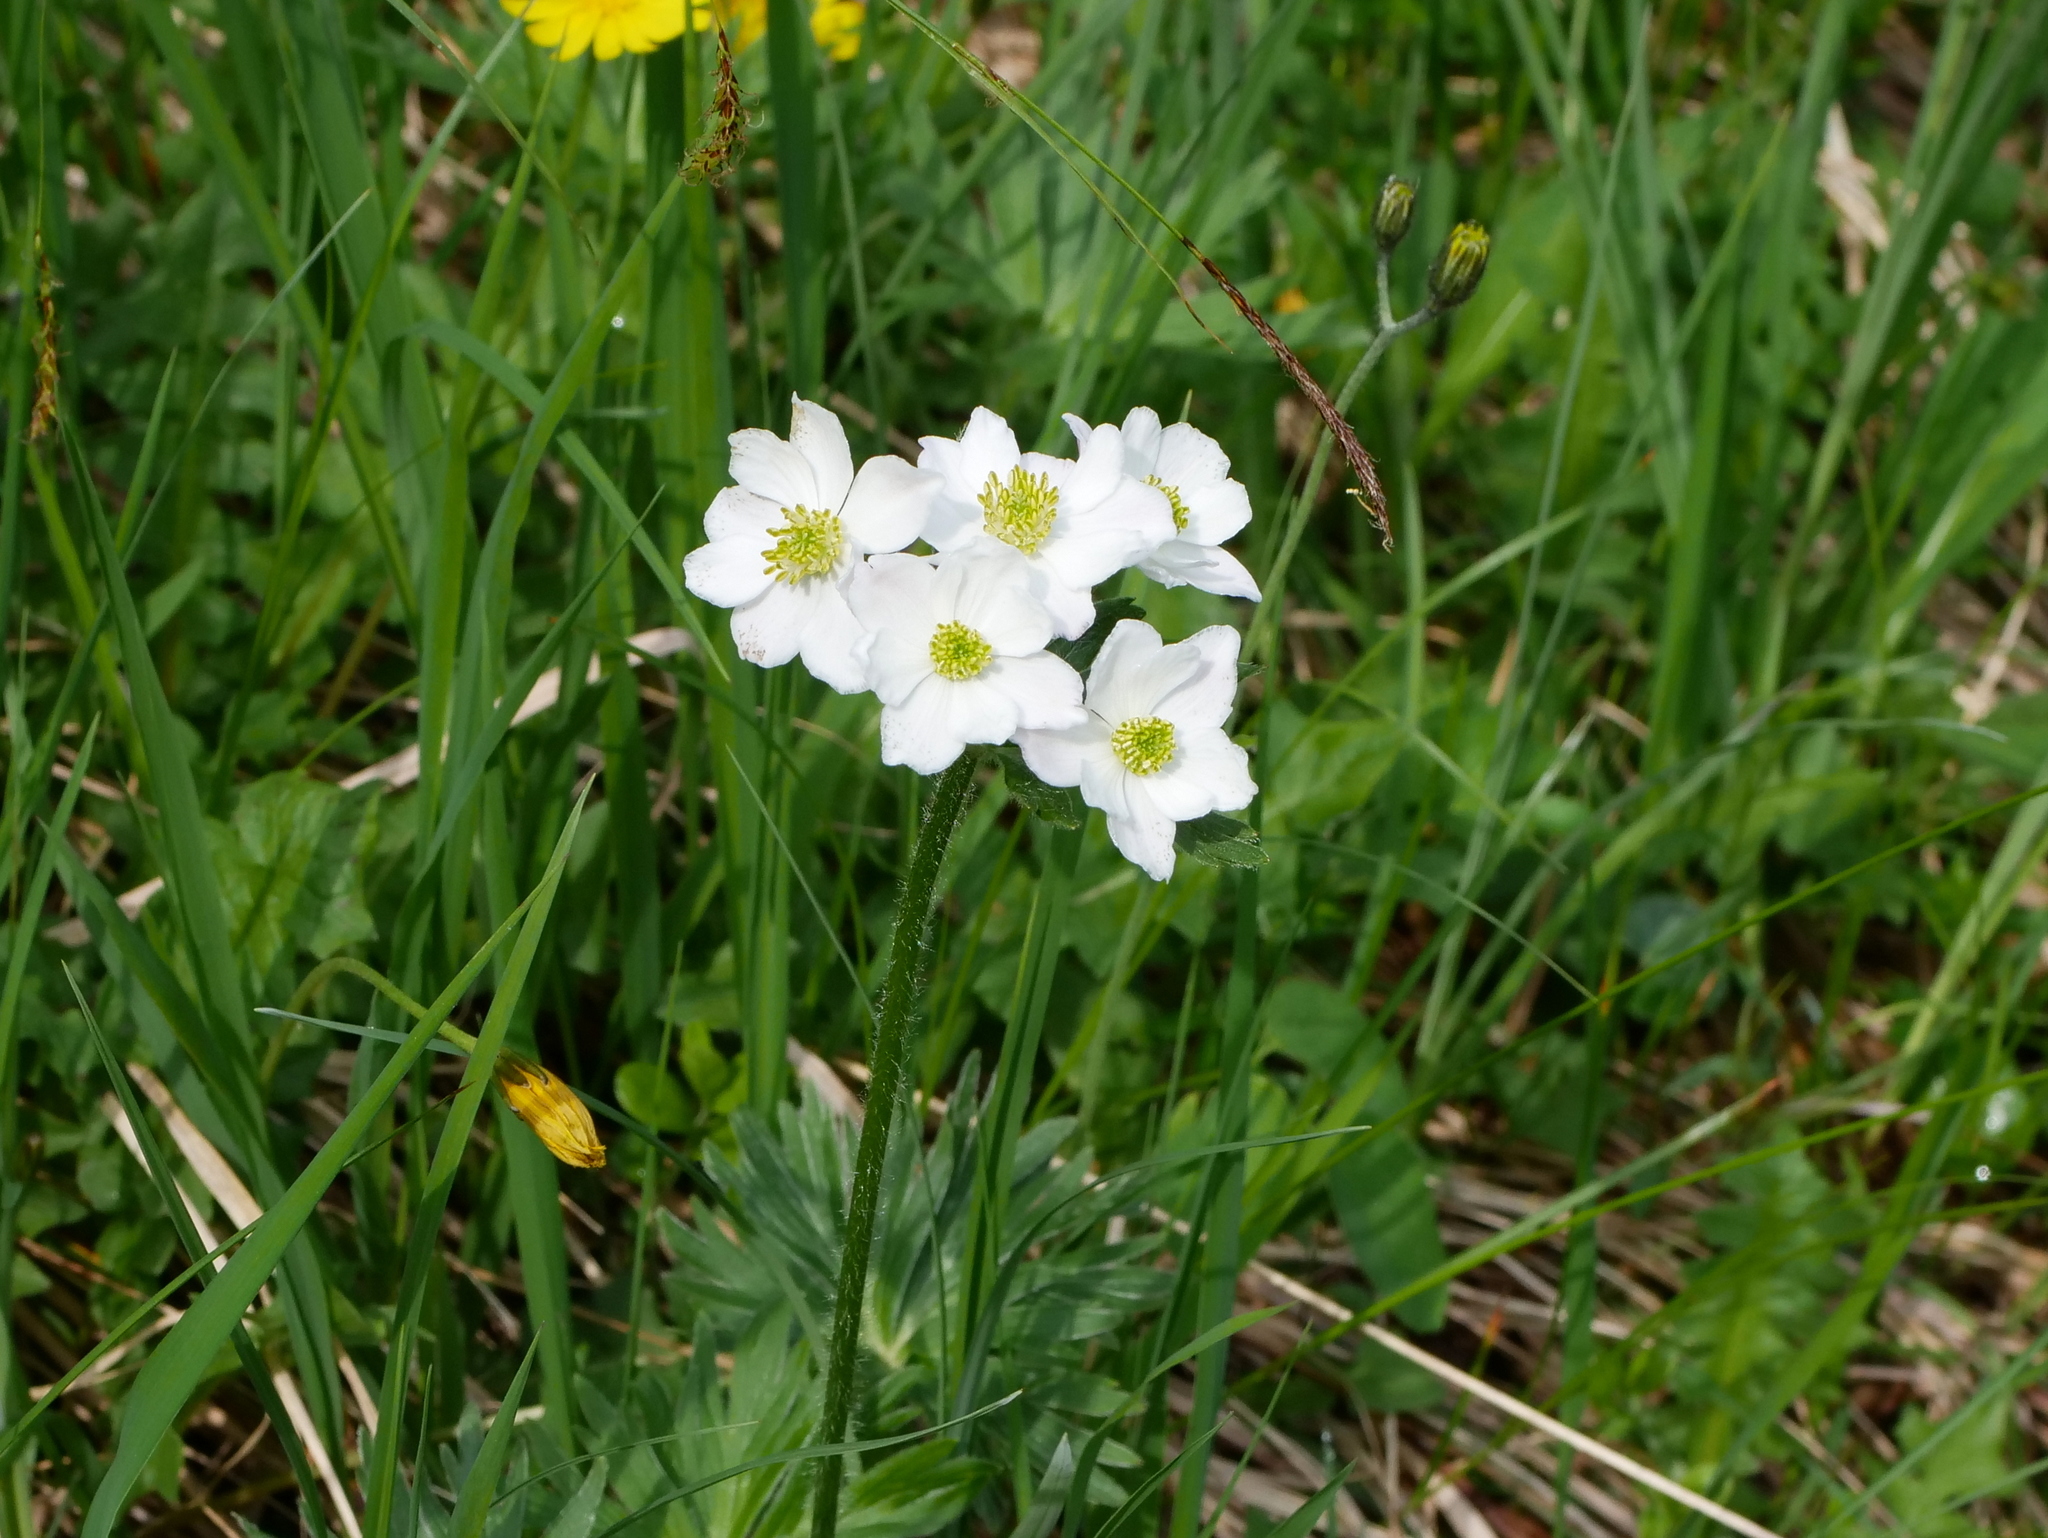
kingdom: Plantae
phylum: Tracheophyta
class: Magnoliopsida
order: Ranunculales
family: Ranunculaceae
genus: Anemonastrum
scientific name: Anemonastrum narcissiflorum
